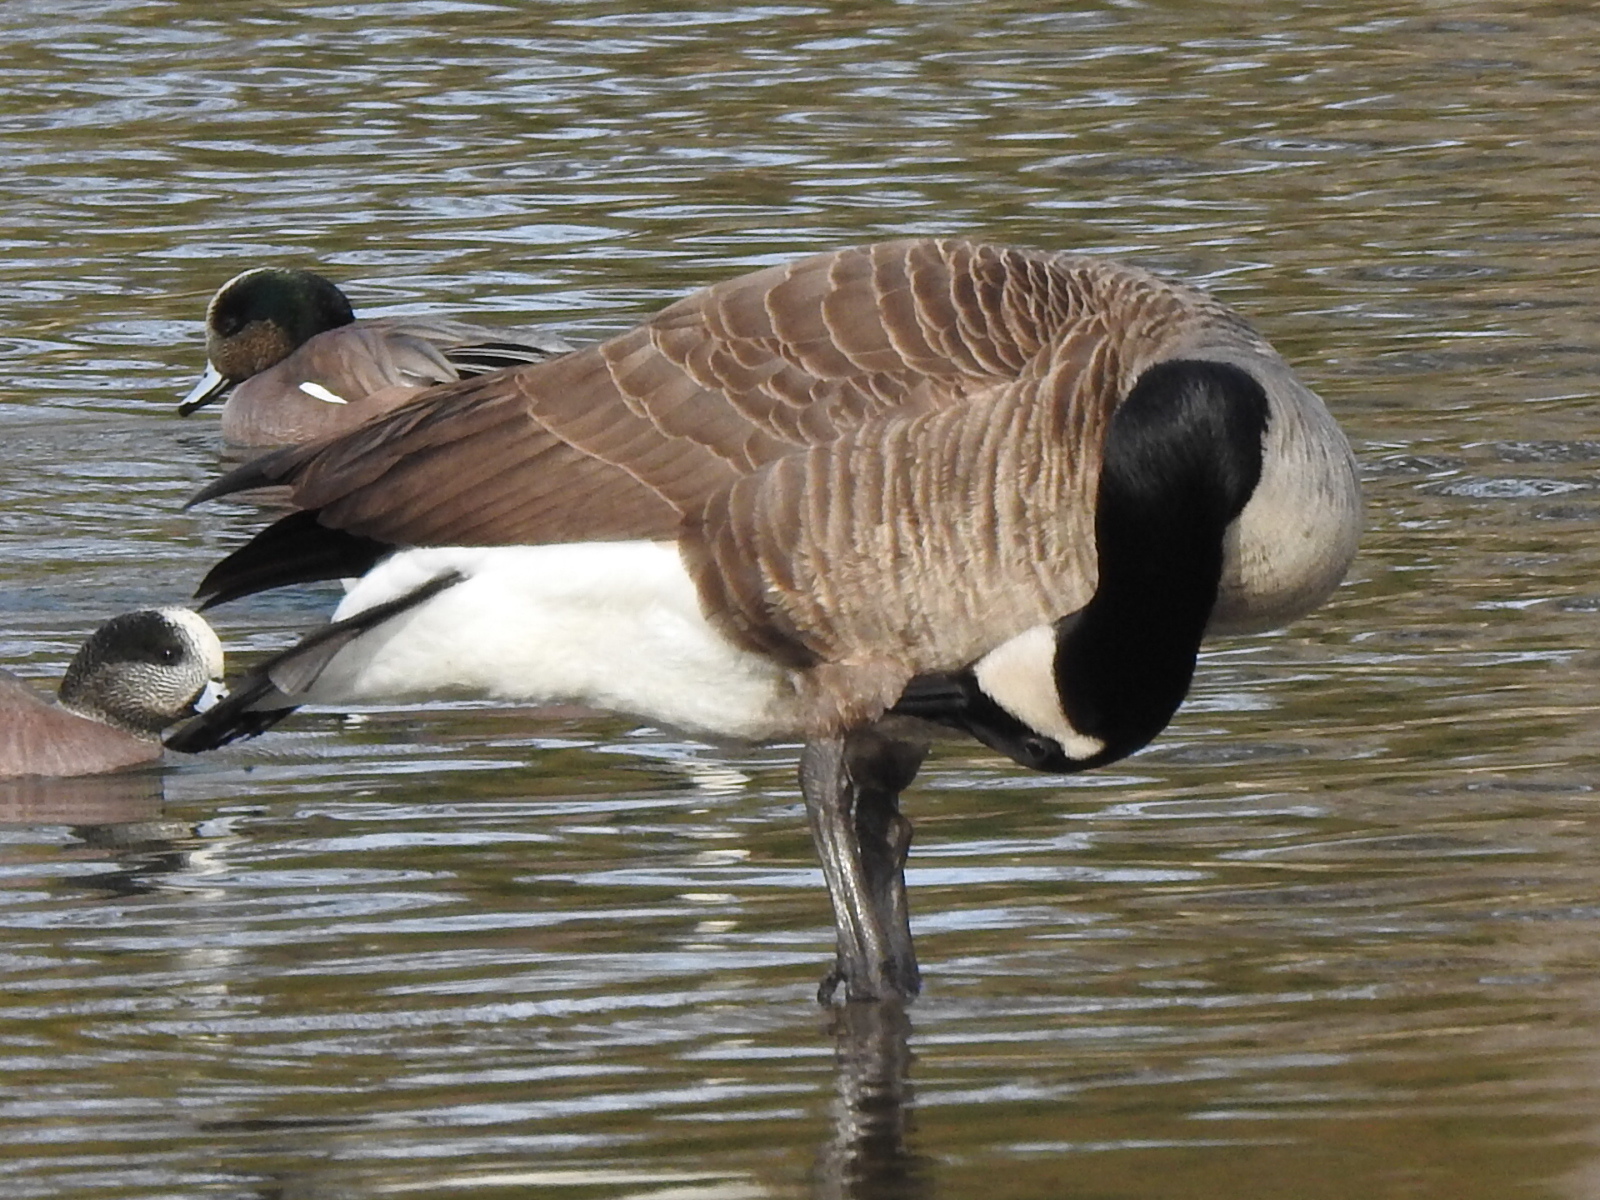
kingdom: Animalia
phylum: Chordata
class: Aves
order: Anseriformes
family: Anatidae
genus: Branta
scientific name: Branta canadensis
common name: Canada goose
